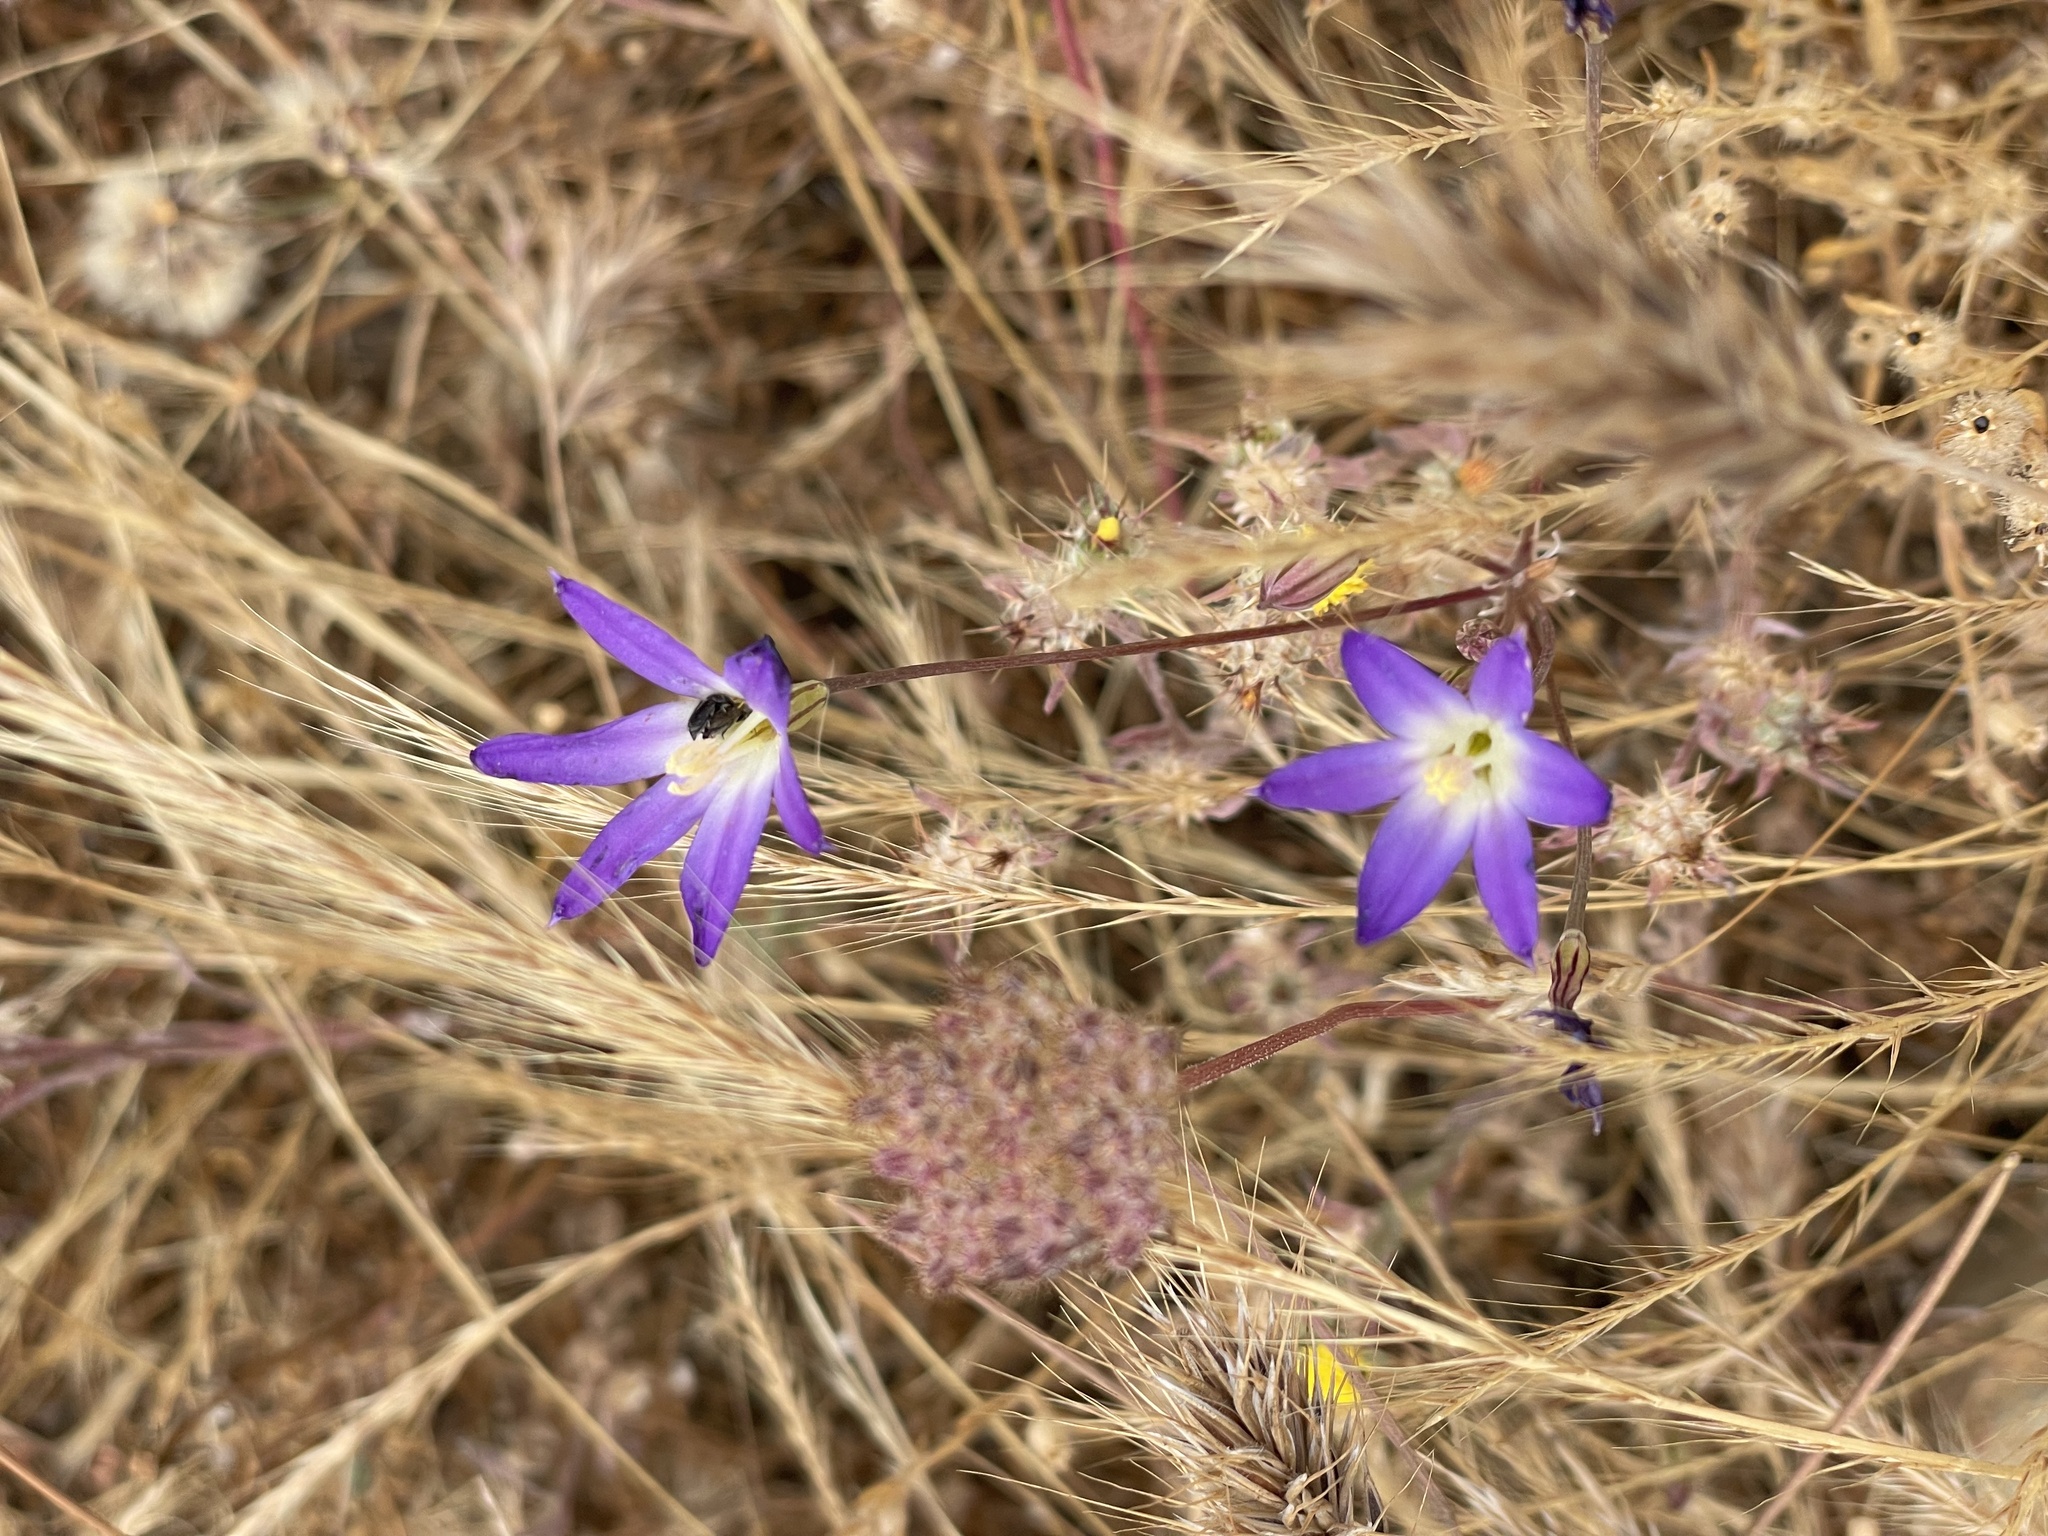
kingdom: Plantae
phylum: Tracheophyta
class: Liliopsida
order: Asparagales
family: Asparagaceae
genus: Brodiaea
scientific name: Brodiaea orcuttii
